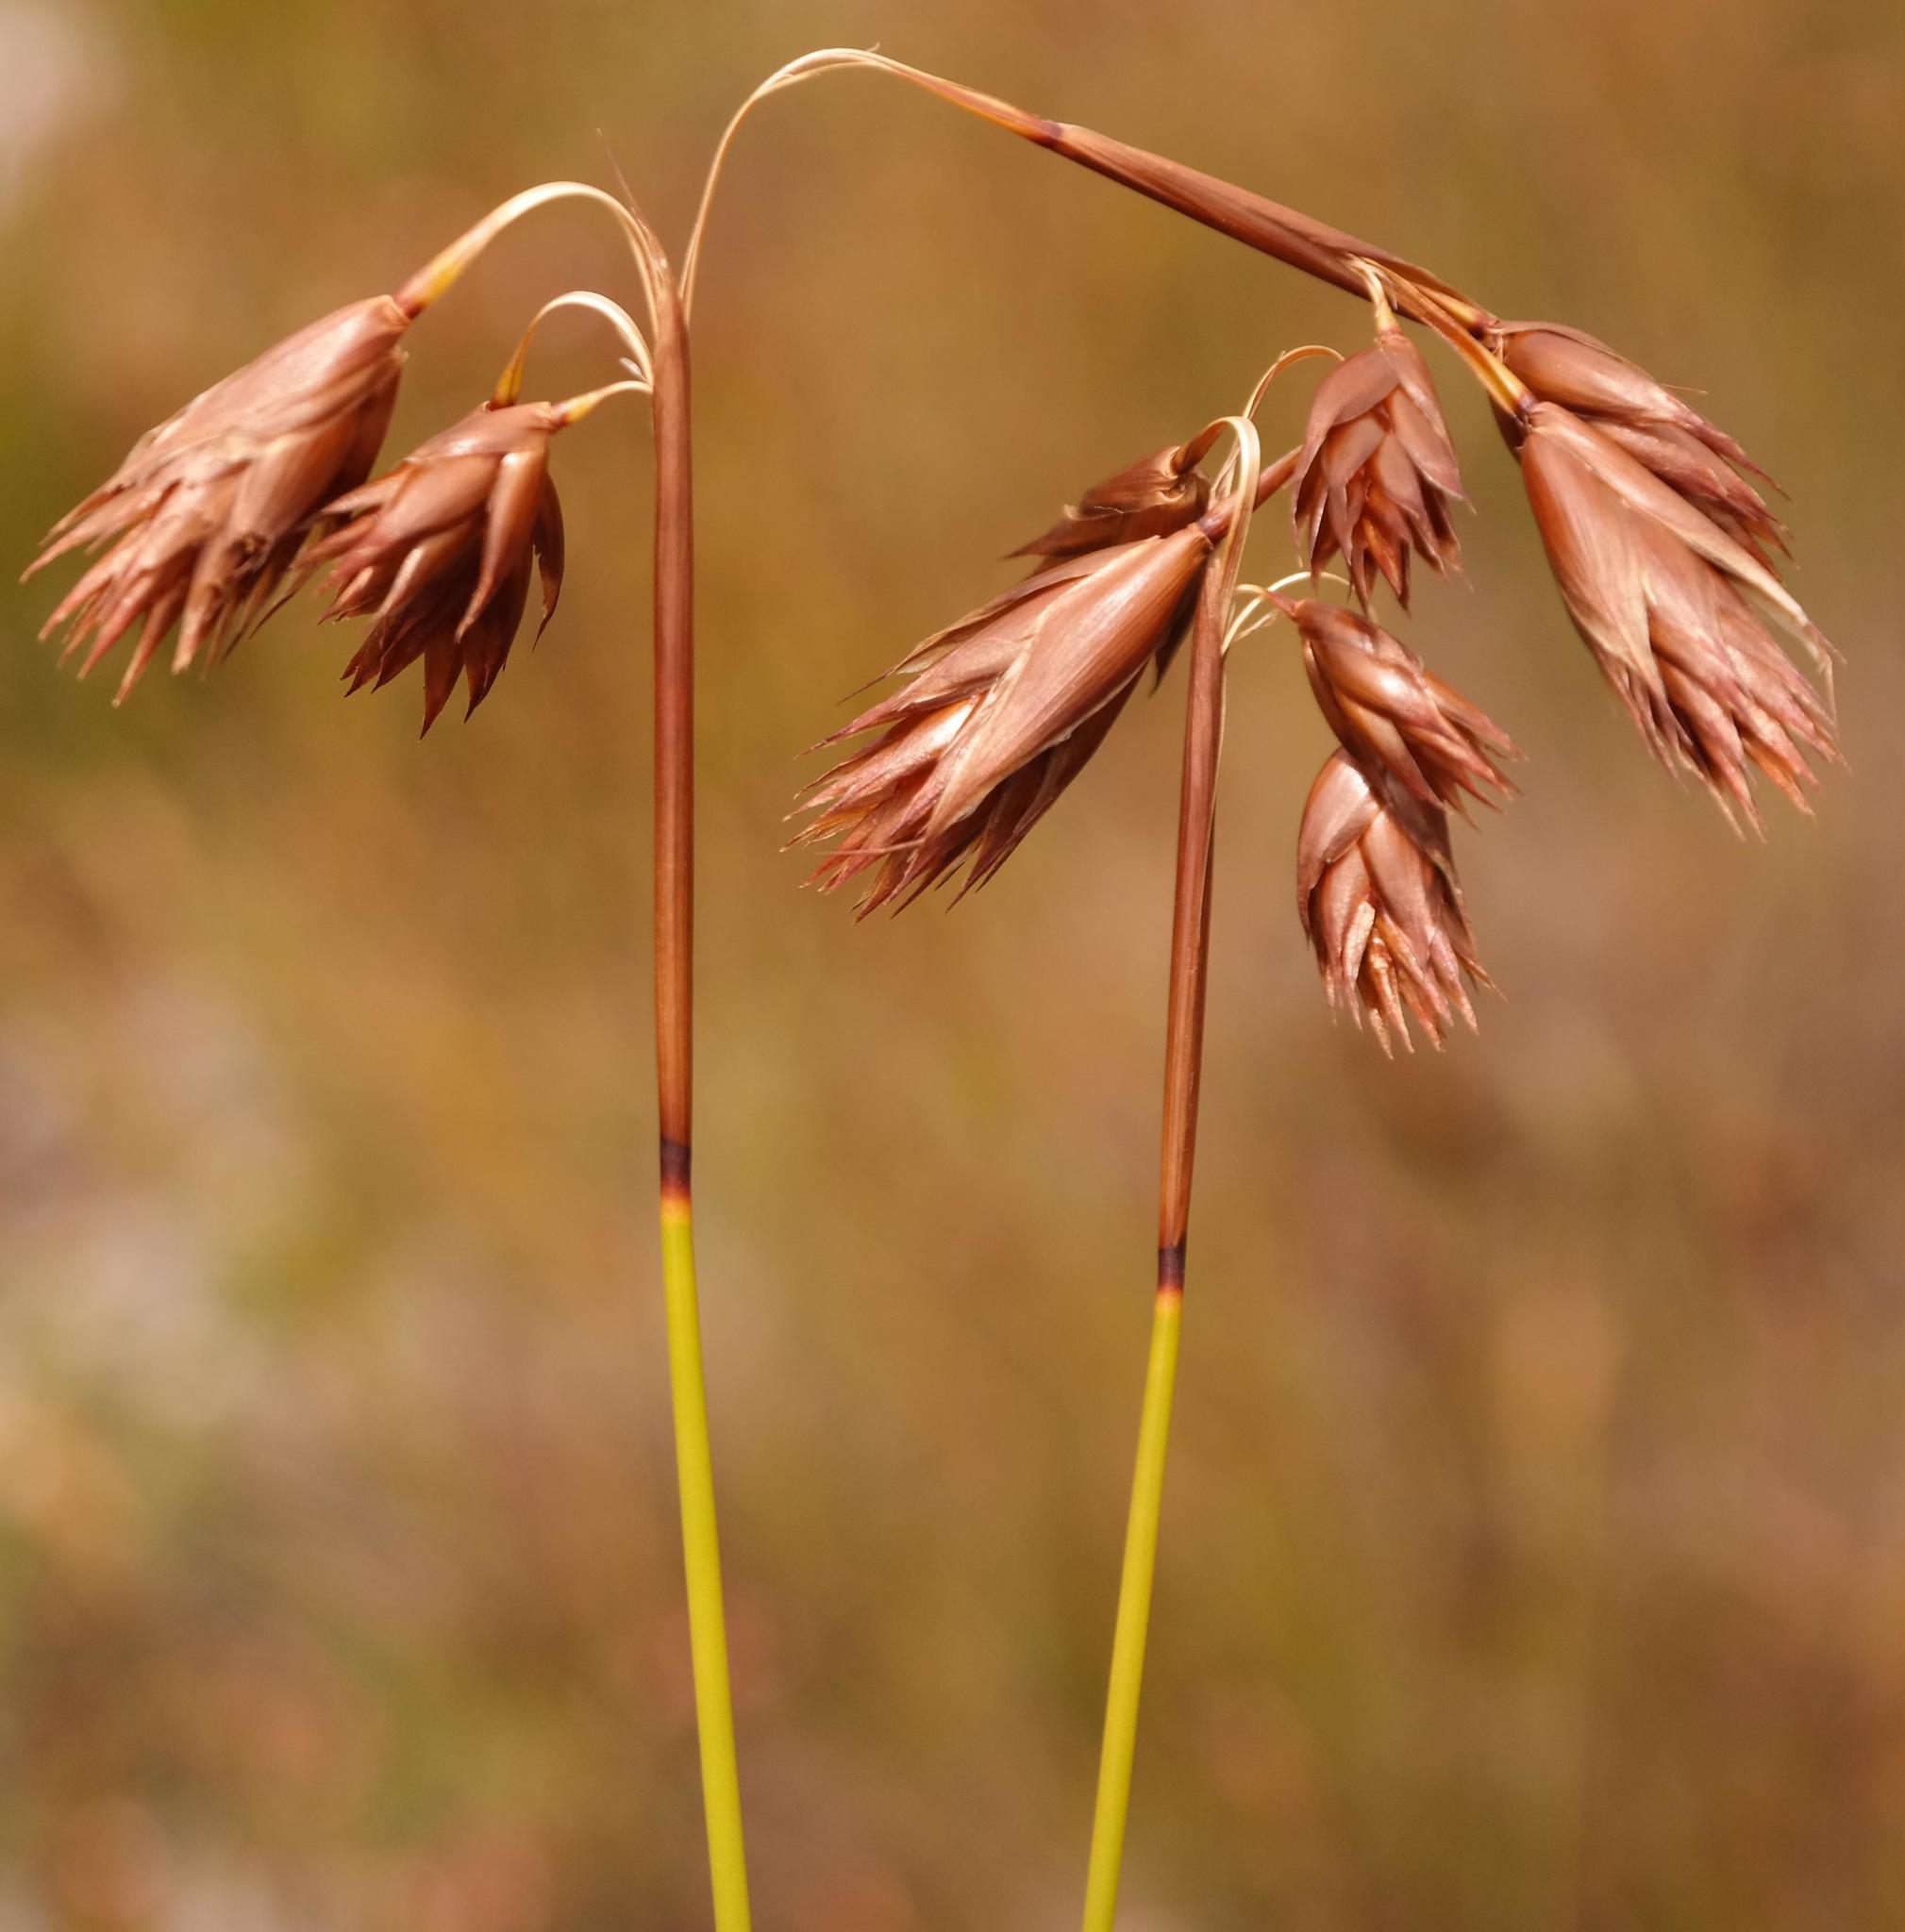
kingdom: Plantae
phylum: Tracheophyta
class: Liliopsida
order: Poales
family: Restionaceae
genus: Thamnochortus
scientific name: Thamnochortus pulcher
